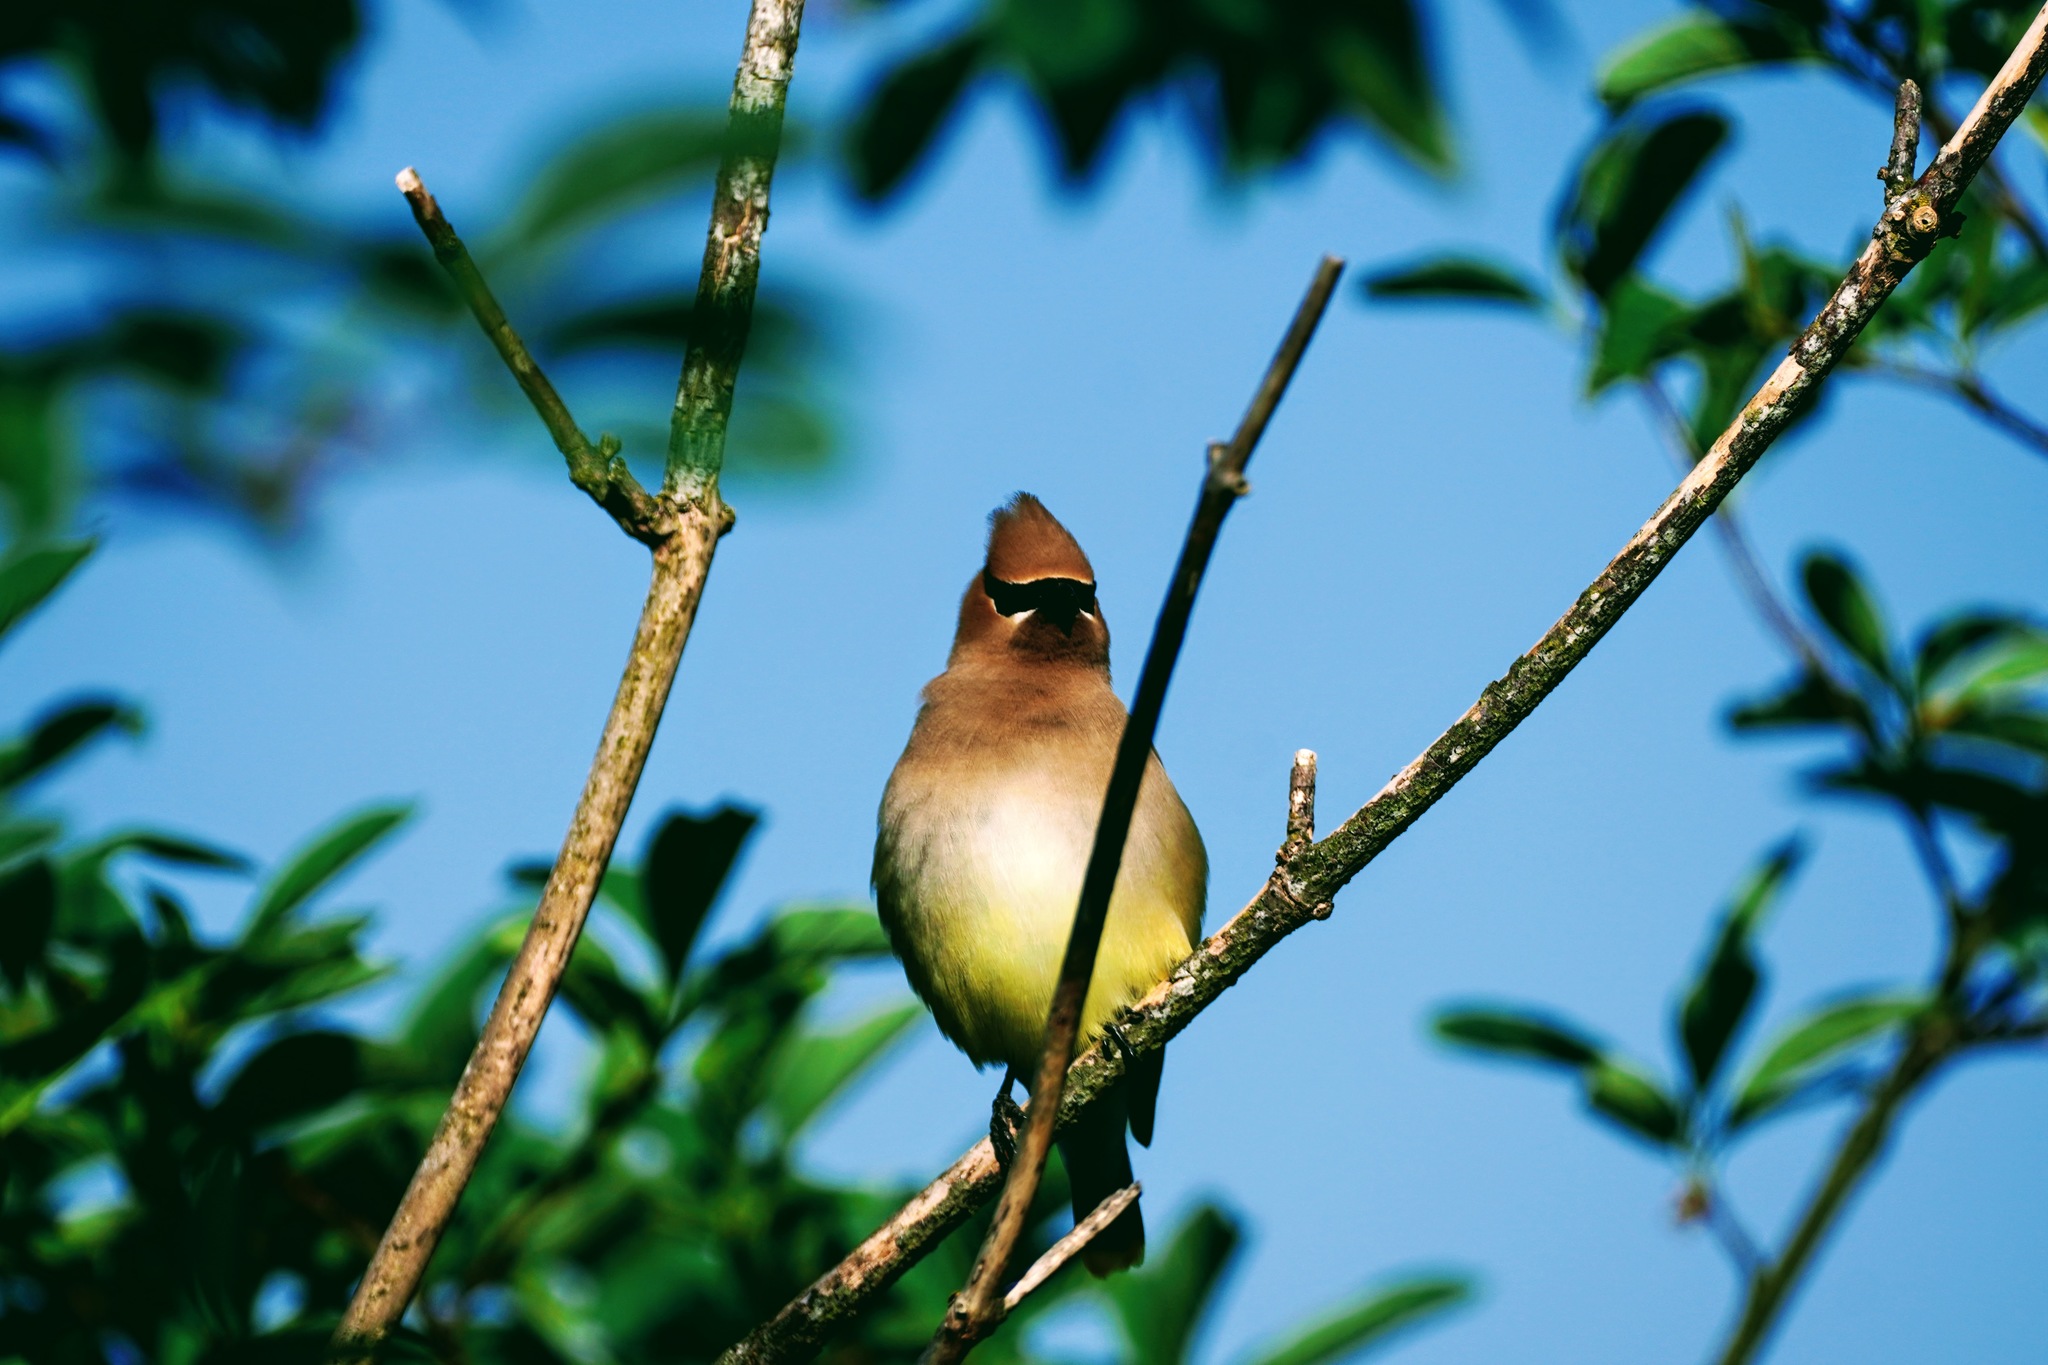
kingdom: Animalia
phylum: Chordata
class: Aves
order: Passeriformes
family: Bombycillidae
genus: Bombycilla
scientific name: Bombycilla cedrorum
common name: Cedar waxwing
